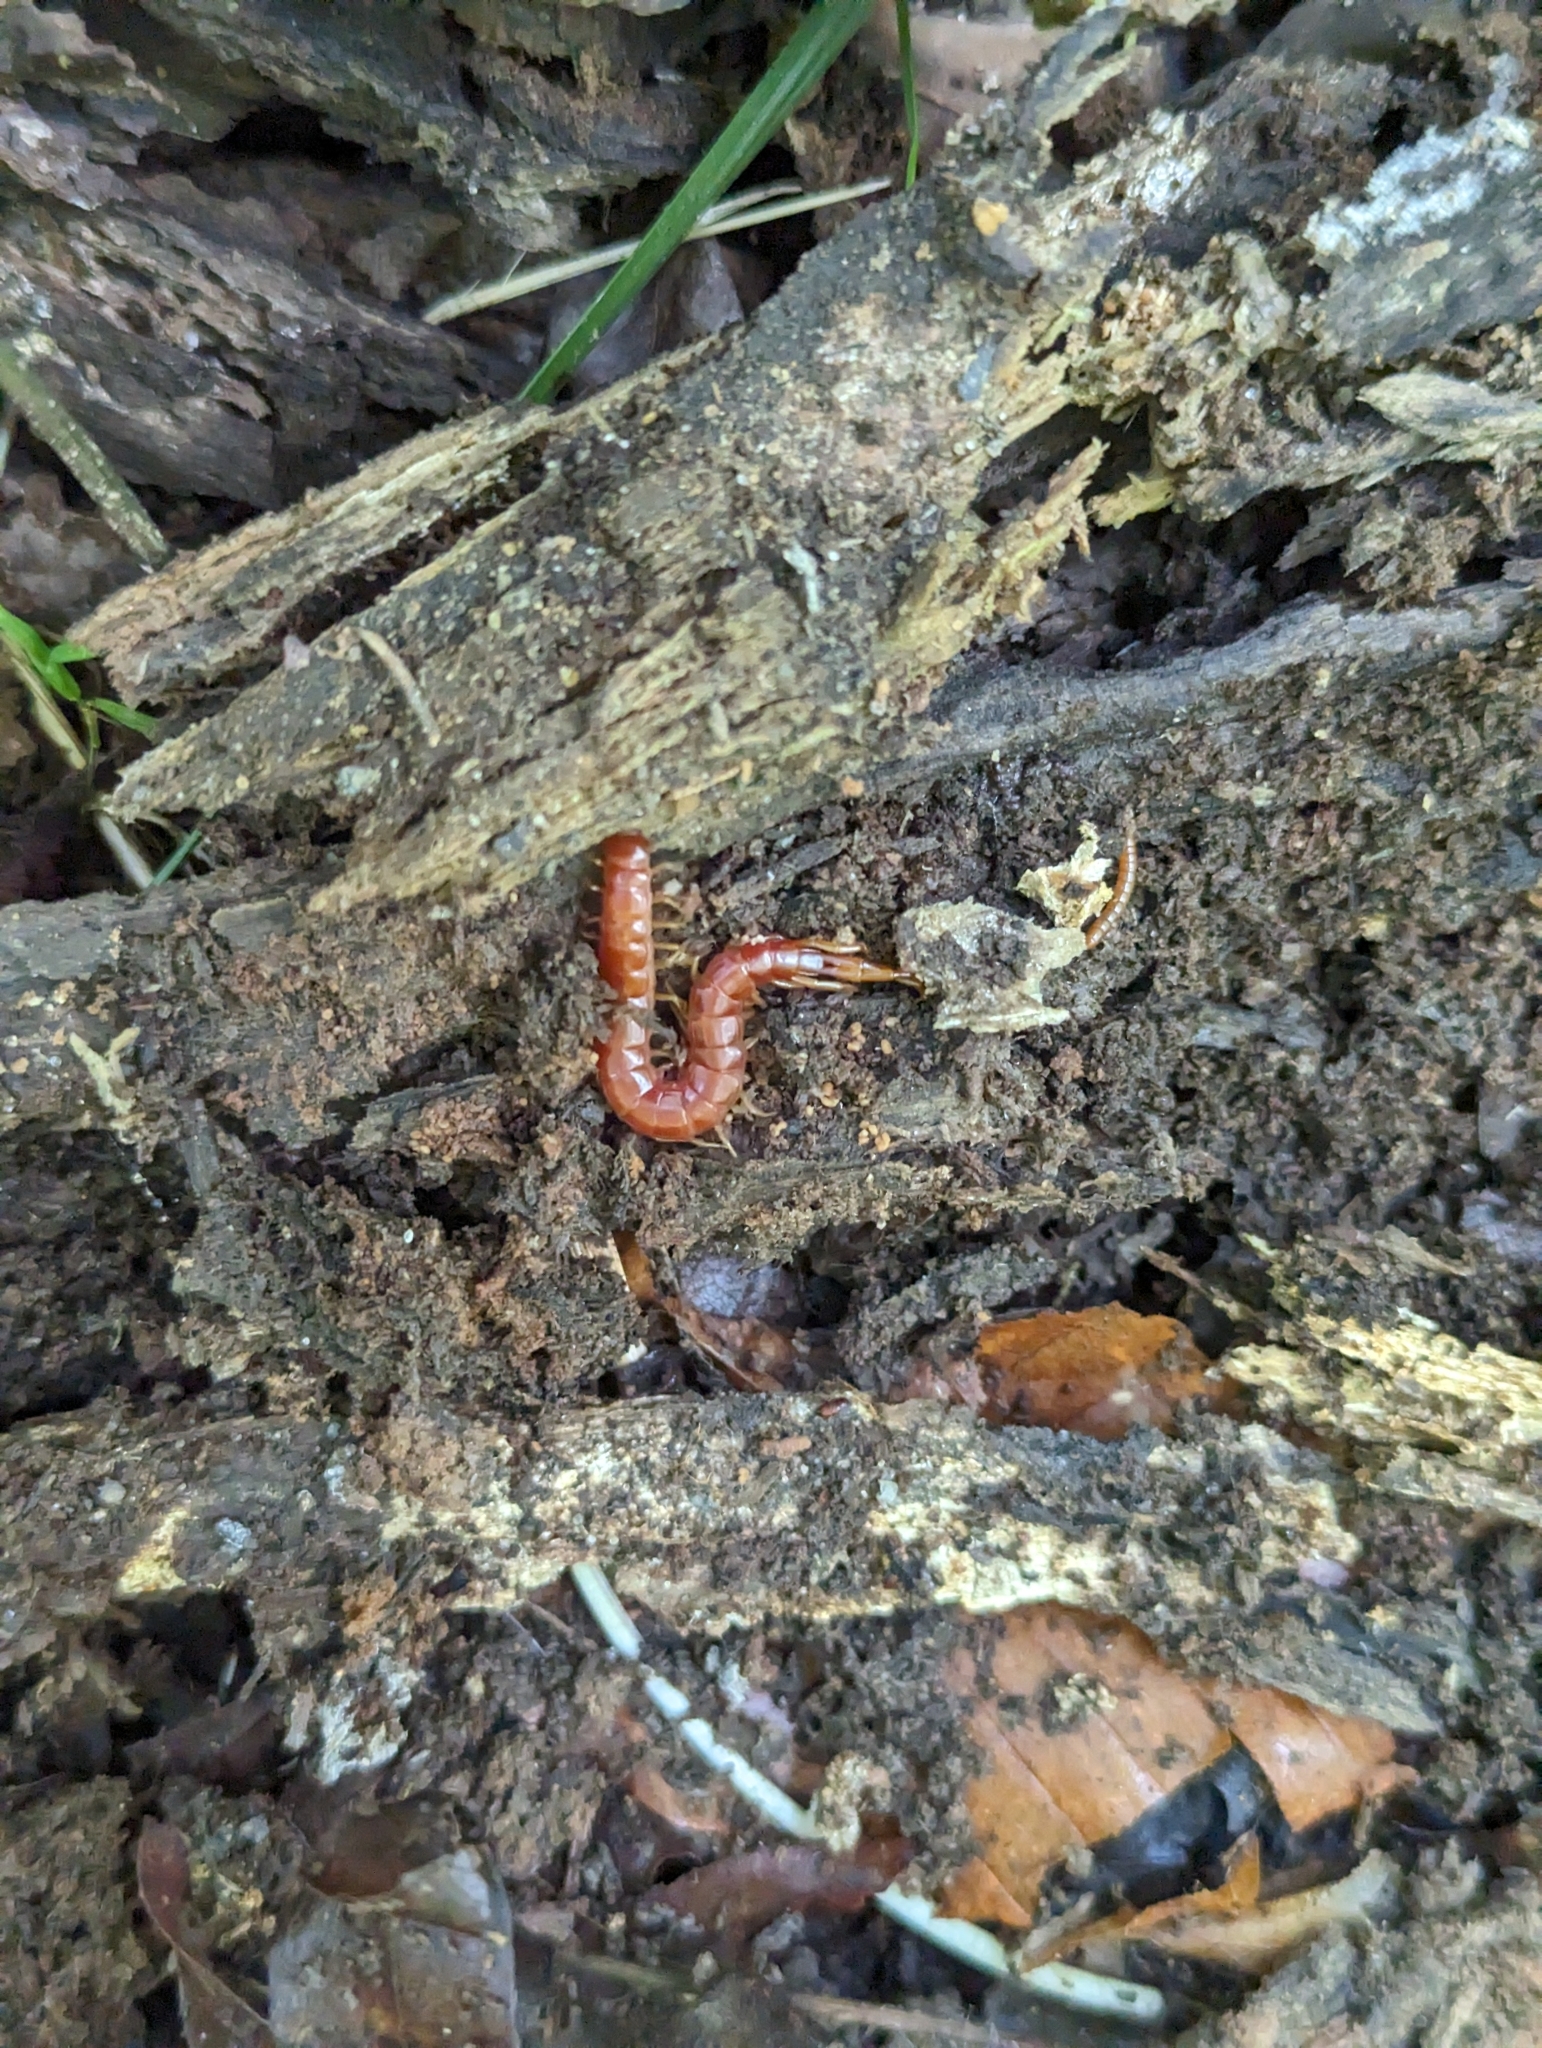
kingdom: Animalia
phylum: Arthropoda
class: Chilopoda
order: Scolopendromorpha
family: Scolopocryptopidae
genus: Scolopocryptops
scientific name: Scolopocryptops sexspinosus
